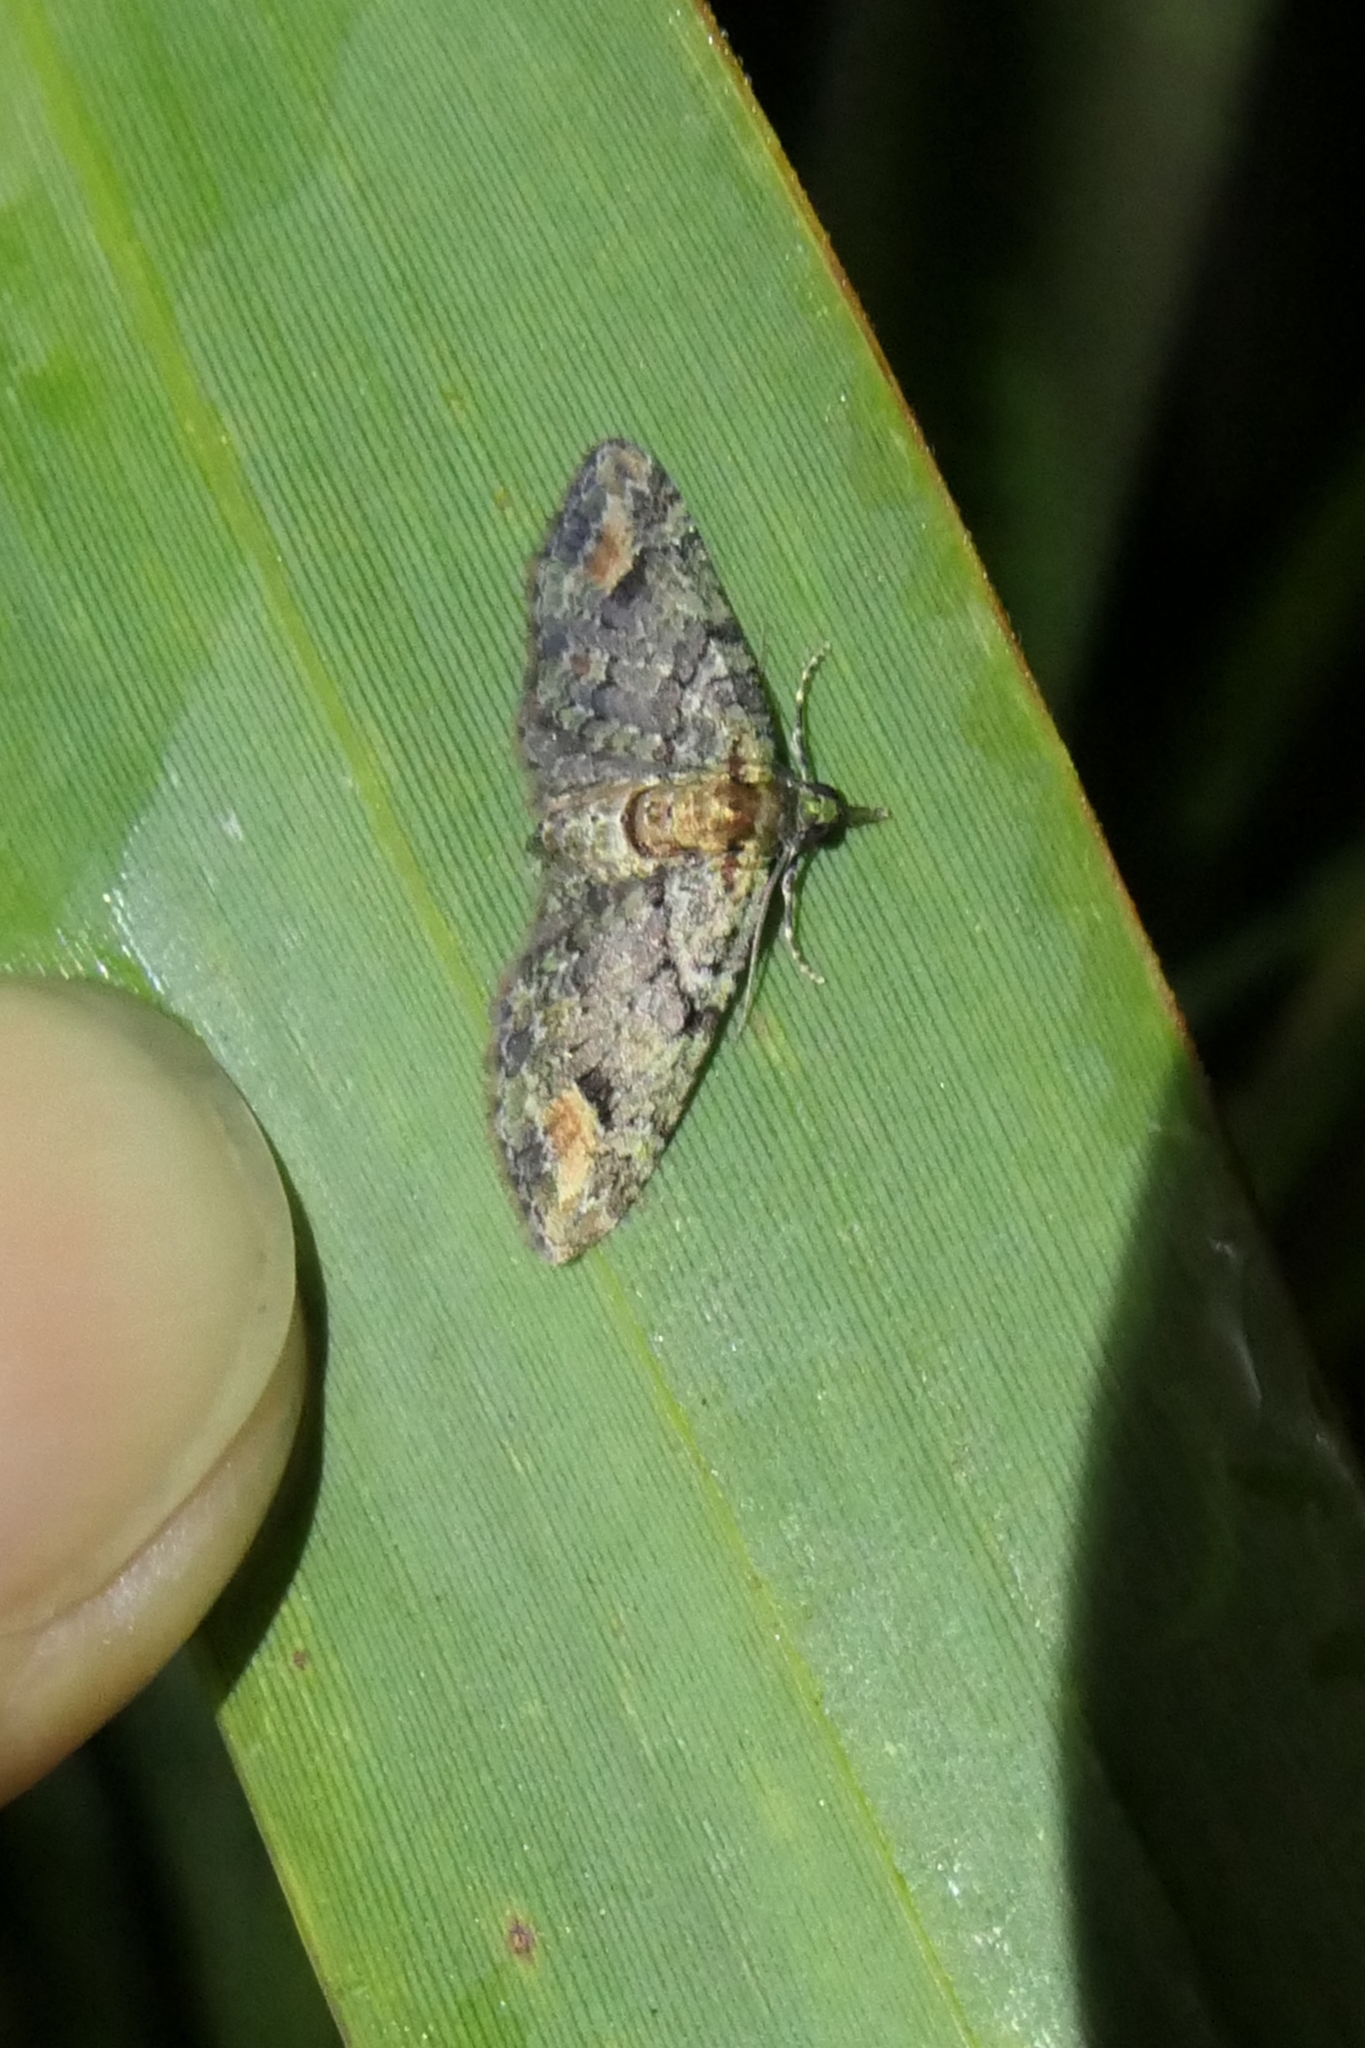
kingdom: Animalia
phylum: Arthropoda
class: Insecta
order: Lepidoptera
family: Geometridae
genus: Idaea
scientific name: Idaea mutanda
